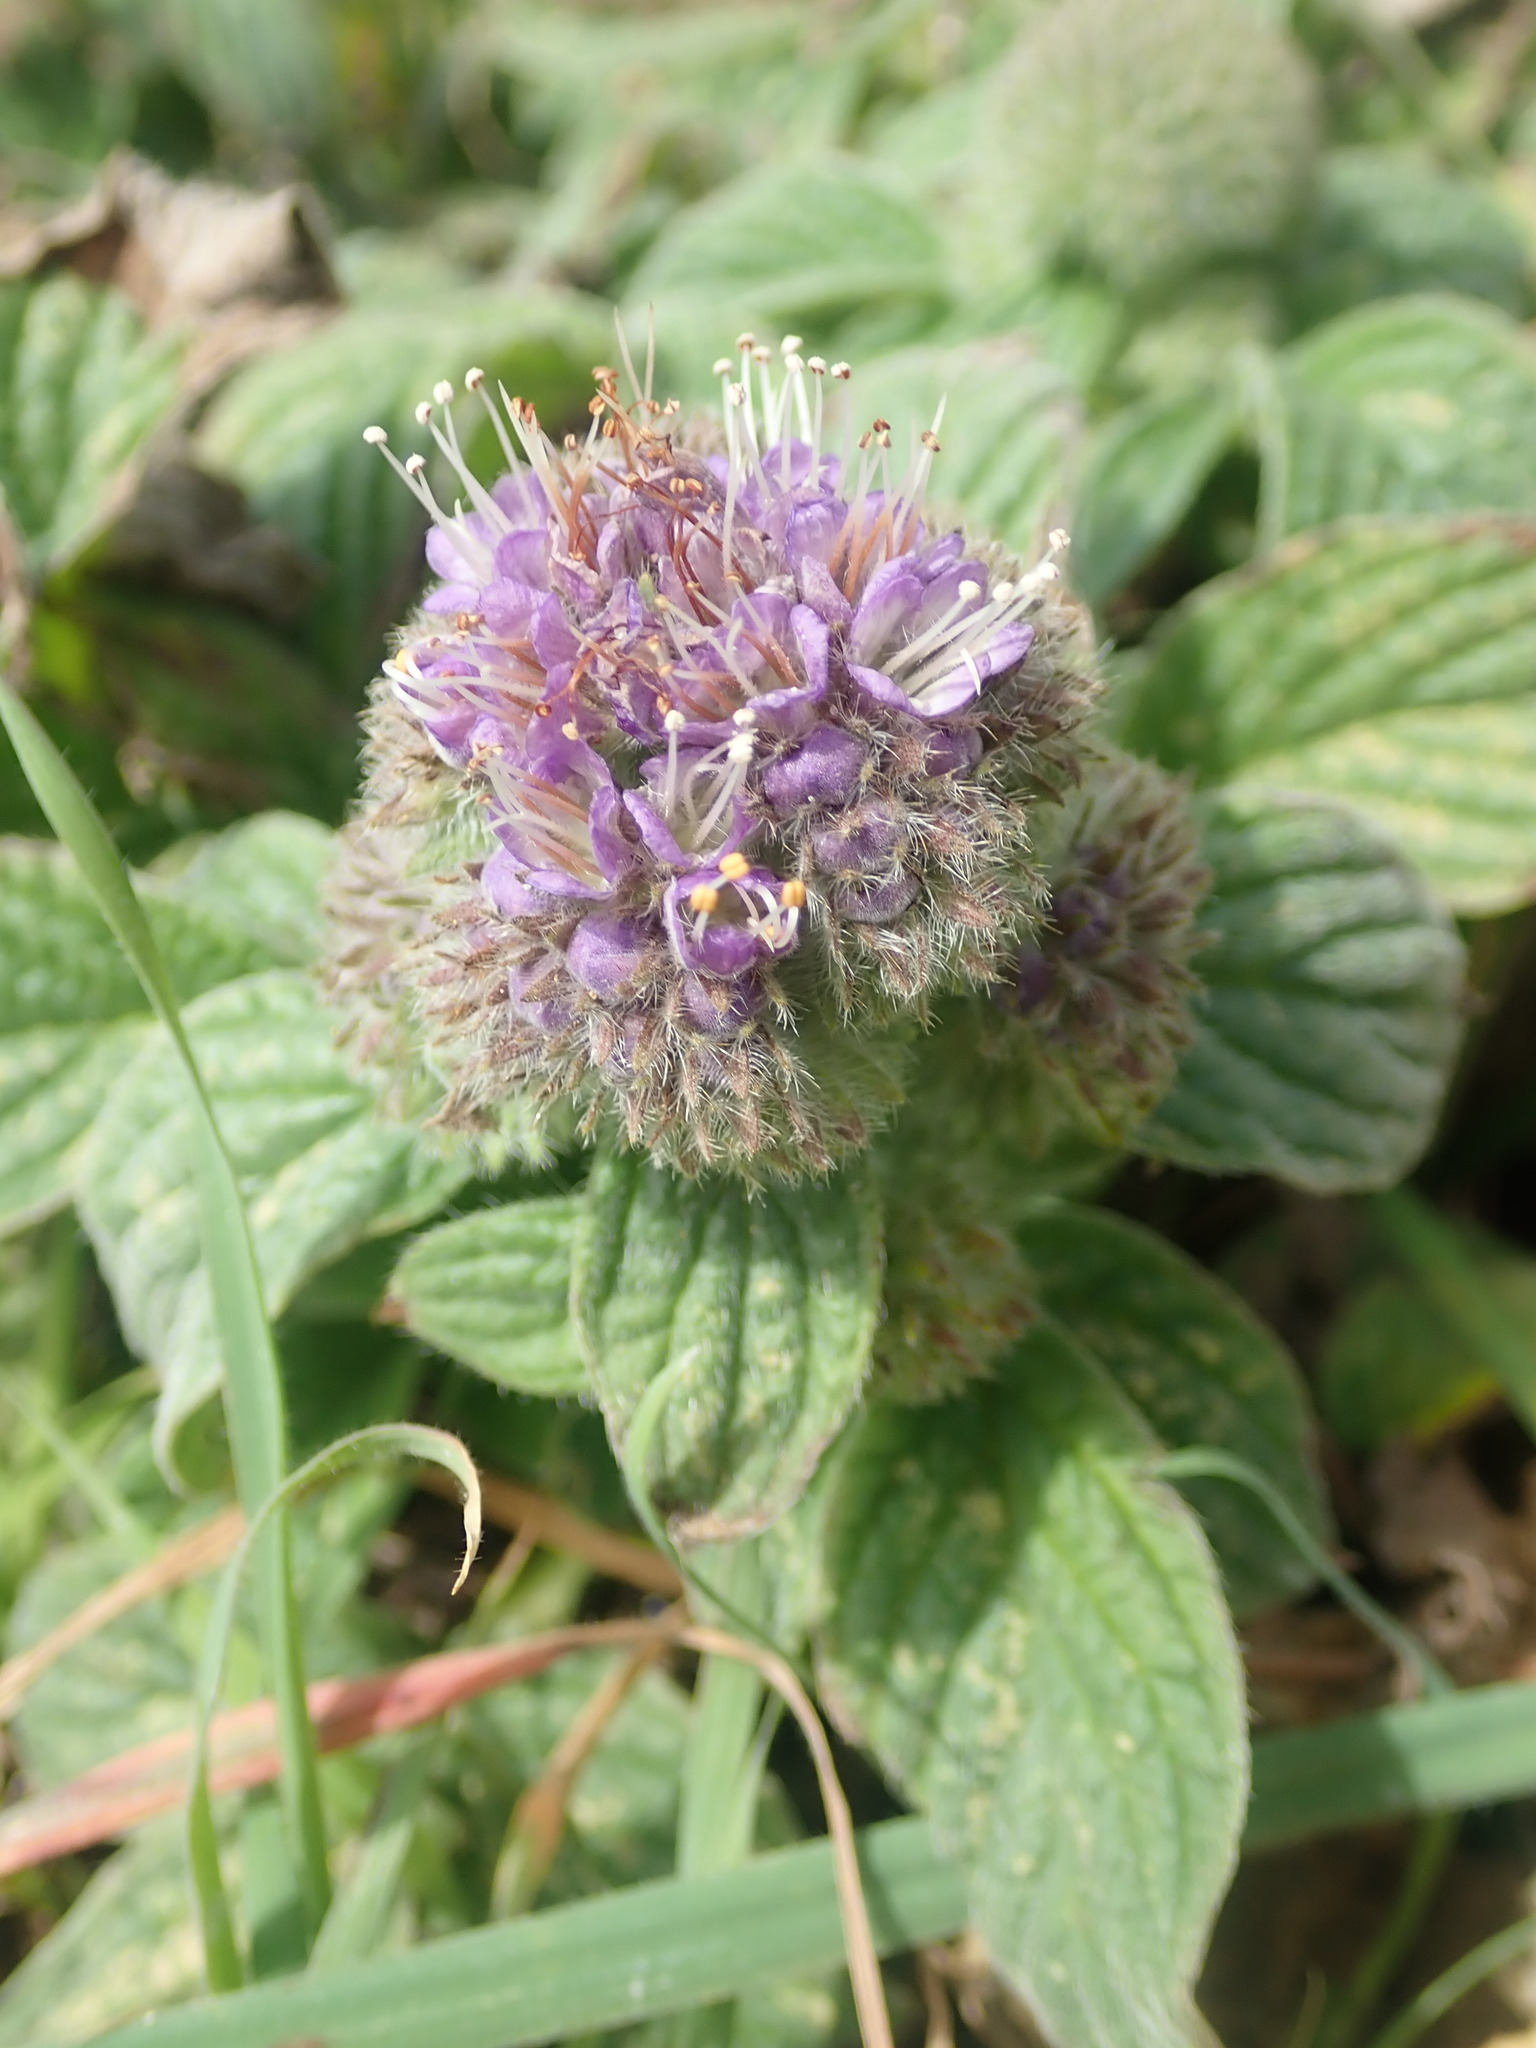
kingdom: Plantae
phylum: Tracheophyta
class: Magnoliopsida
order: Boraginales
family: Hydrophyllaceae
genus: Phacelia
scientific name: Phacelia californica
